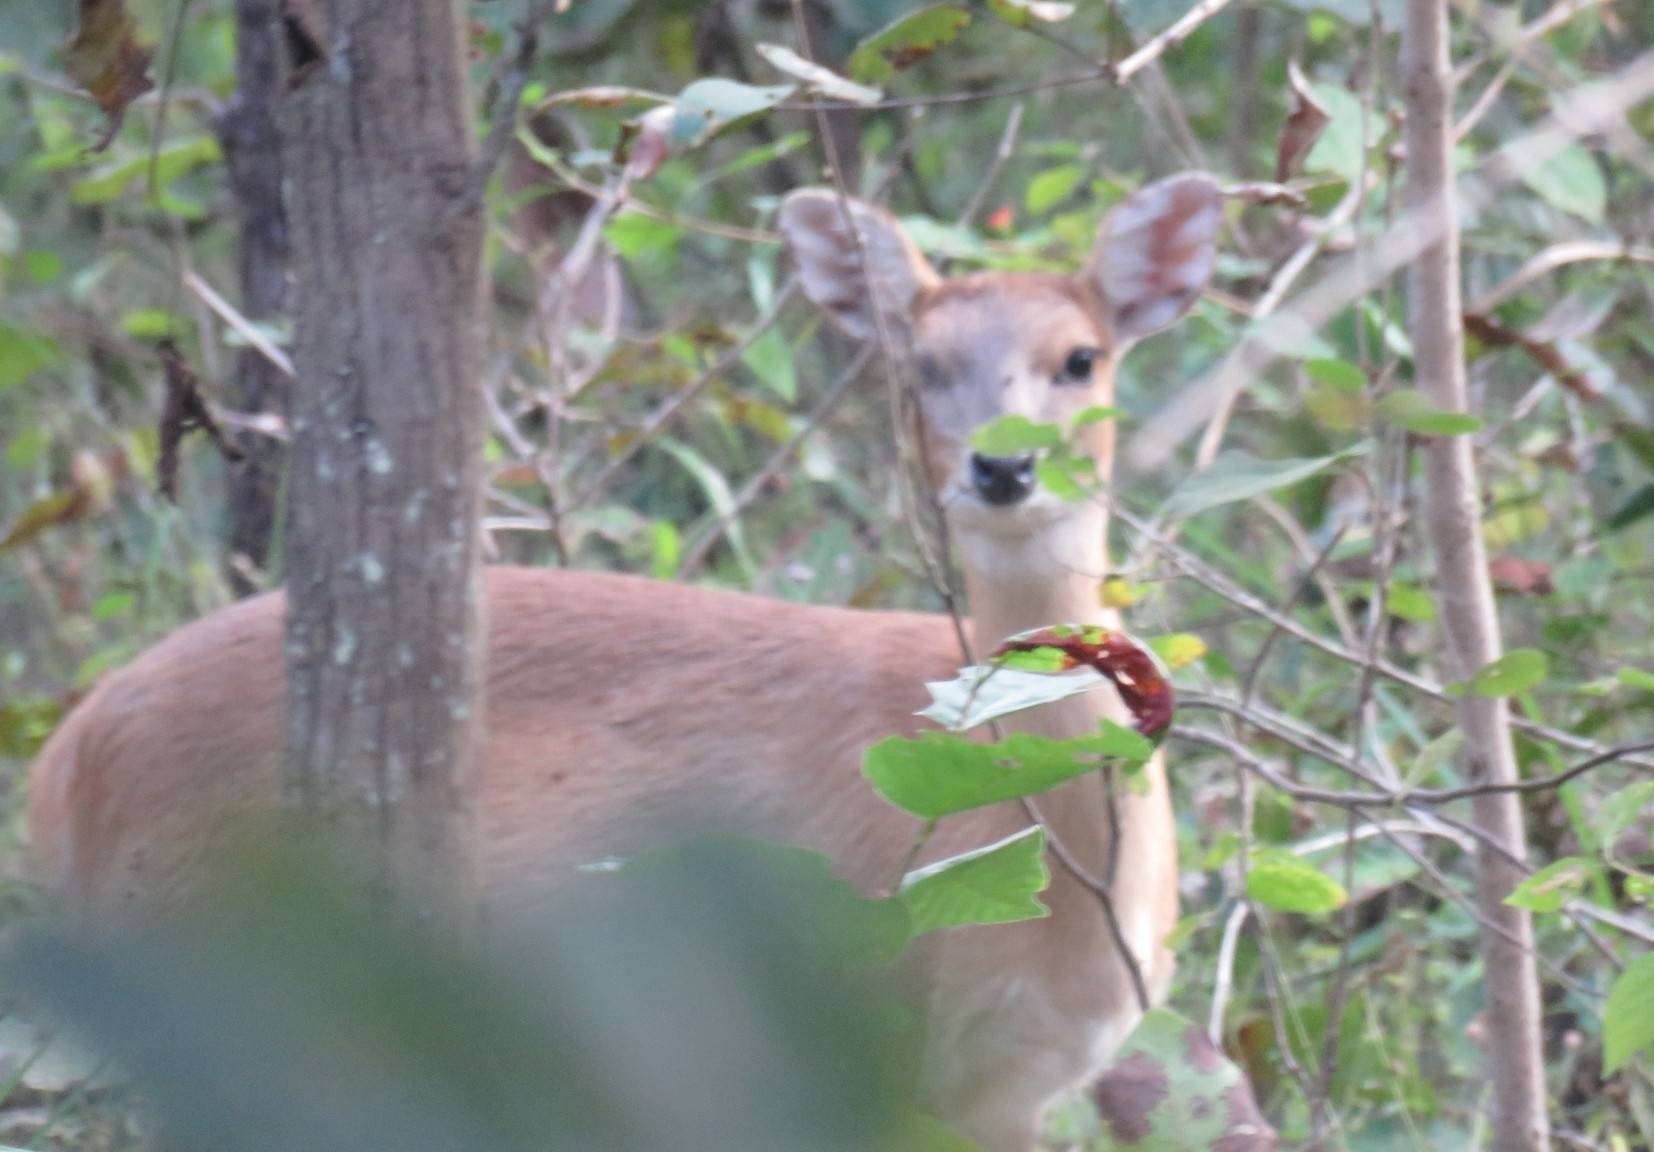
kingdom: Animalia
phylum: Chordata
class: Mammalia
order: Artiodactyla
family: Bovidae
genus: Tetracerus
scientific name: Tetracerus quadricornis
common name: Four-horned antelope
